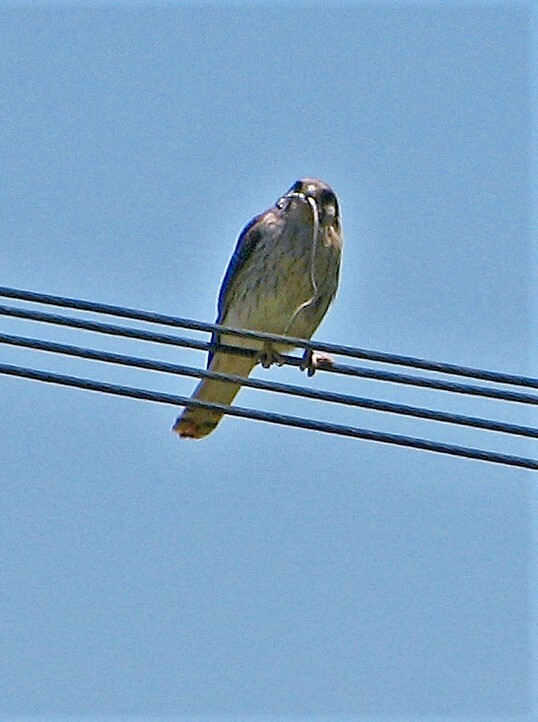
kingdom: Animalia
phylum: Chordata
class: Aves
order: Falconiformes
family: Falconidae
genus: Falco
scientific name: Falco sparverius
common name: American kestrel
